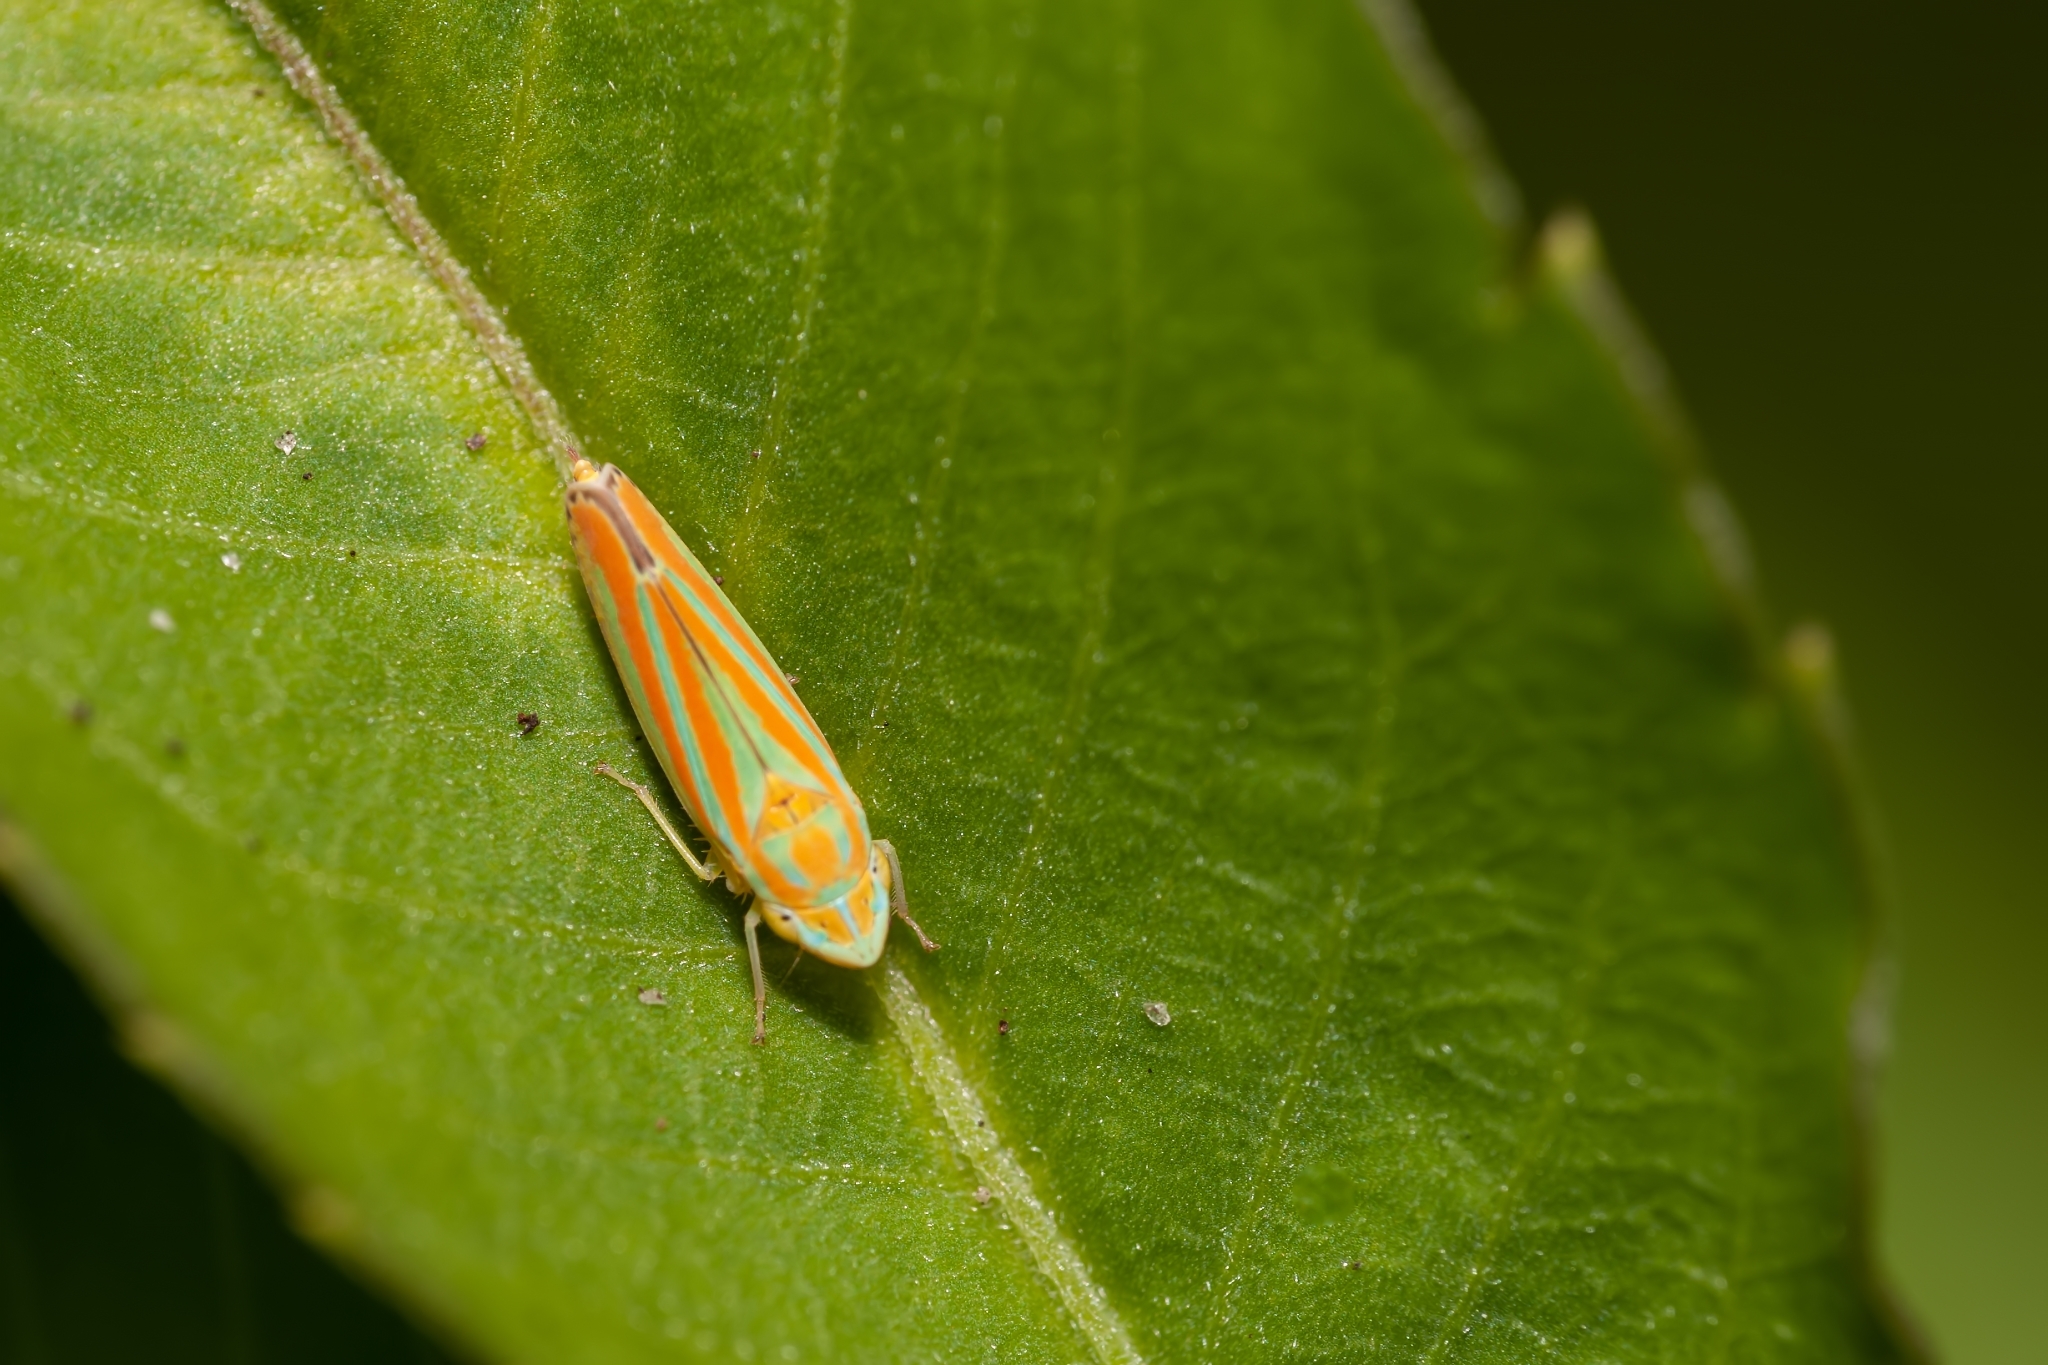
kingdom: Animalia
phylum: Arthropoda
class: Insecta
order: Hemiptera
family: Cicadellidae
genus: Graphocephala
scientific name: Graphocephala versuta
